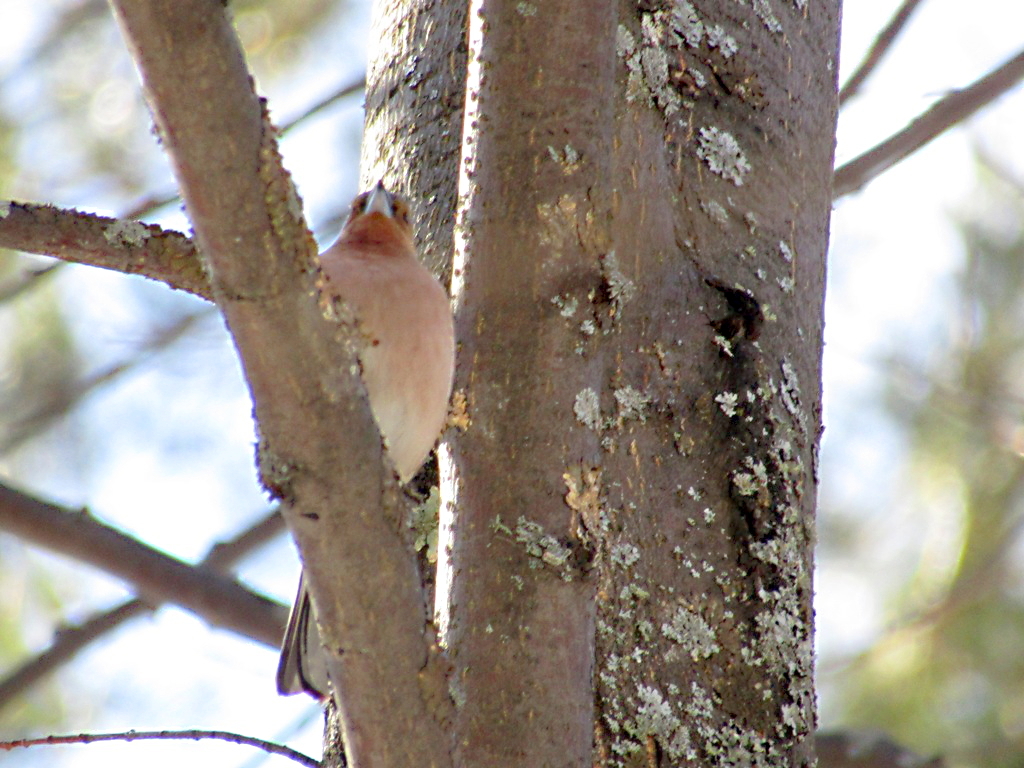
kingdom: Animalia
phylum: Chordata
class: Aves
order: Passeriformes
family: Fringillidae
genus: Fringilla
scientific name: Fringilla coelebs
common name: Common chaffinch
